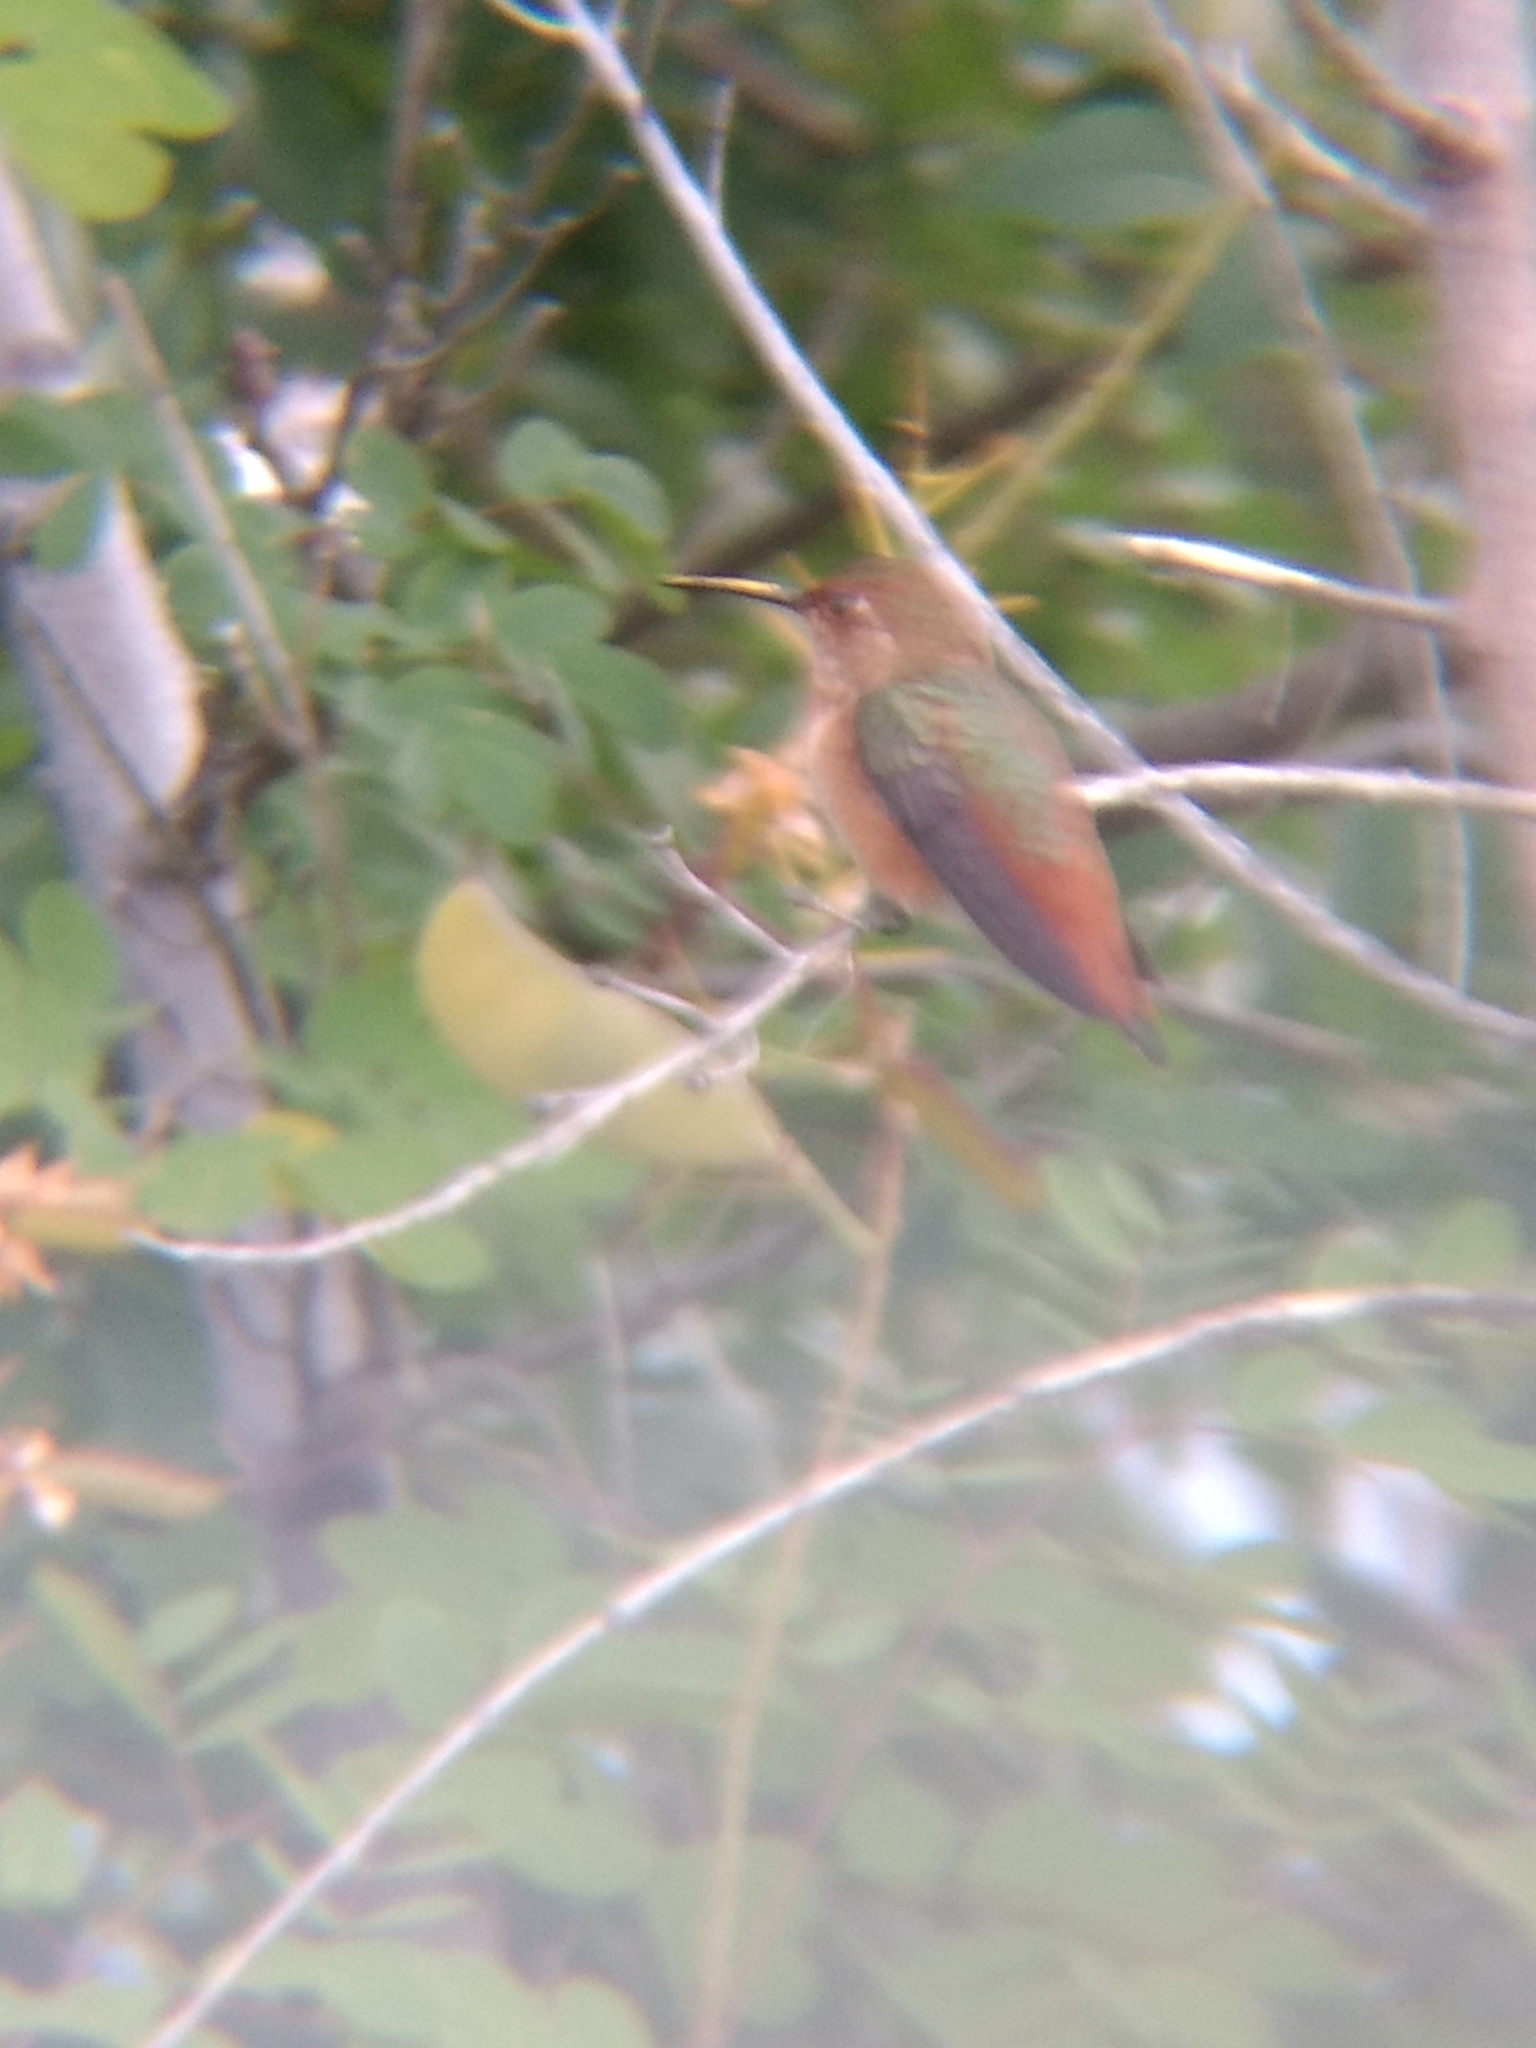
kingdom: Animalia
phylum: Chordata
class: Aves
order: Apodiformes
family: Trochilidae
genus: Selasphorus
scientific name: Selasphorus sasin
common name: Allen's hummingbird
